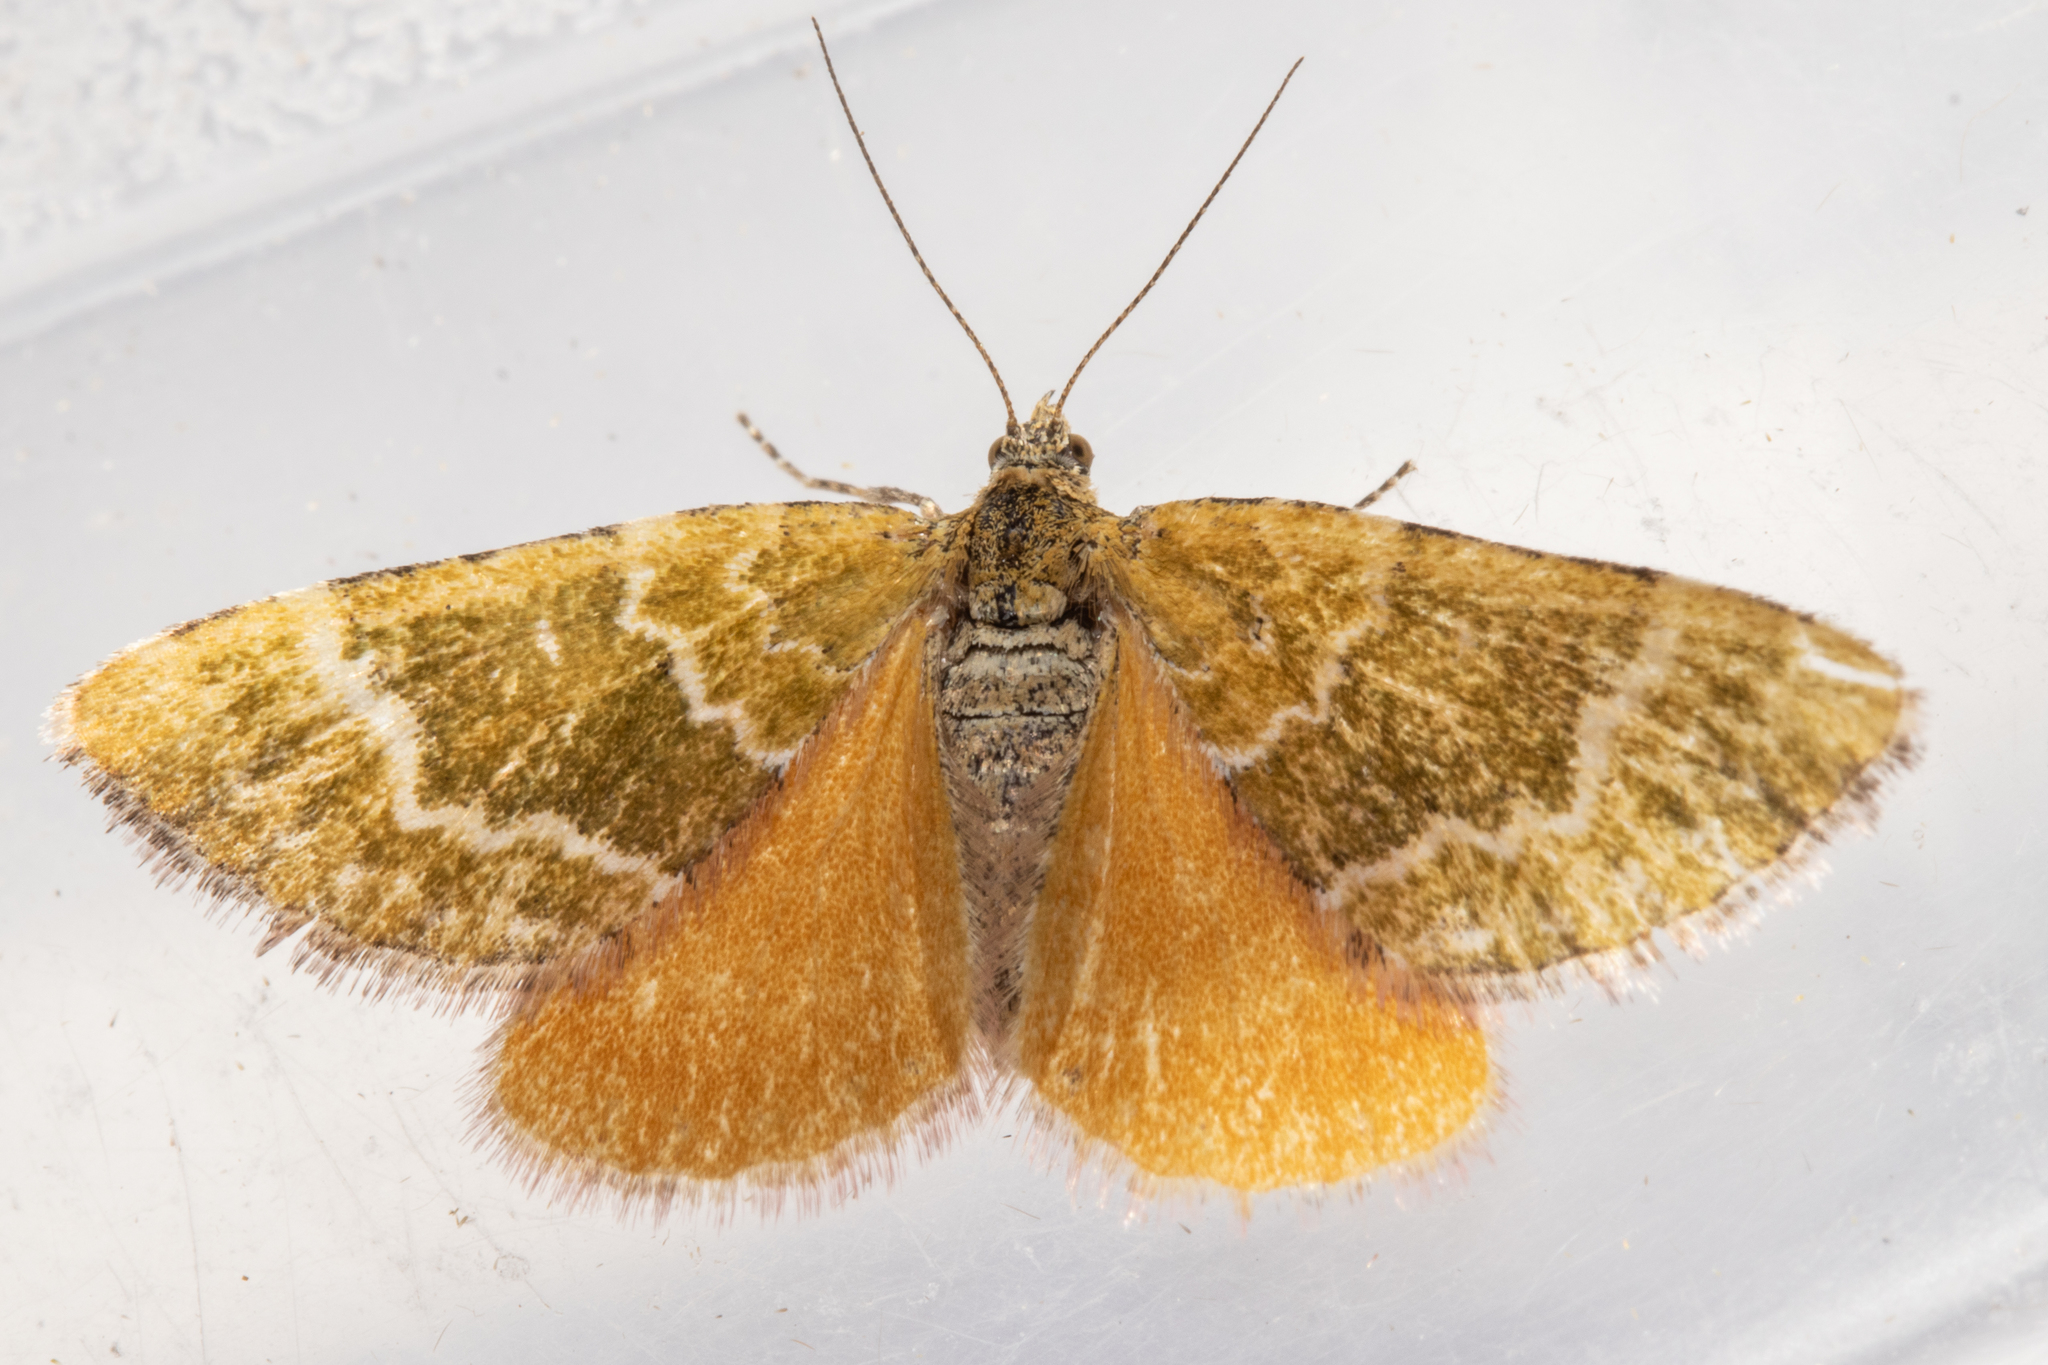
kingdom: Animalia
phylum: Arthropoda
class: Insecta
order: Lepidoptera
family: Geometridae
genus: Asaphodes
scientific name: Asaphodes cinnabari
